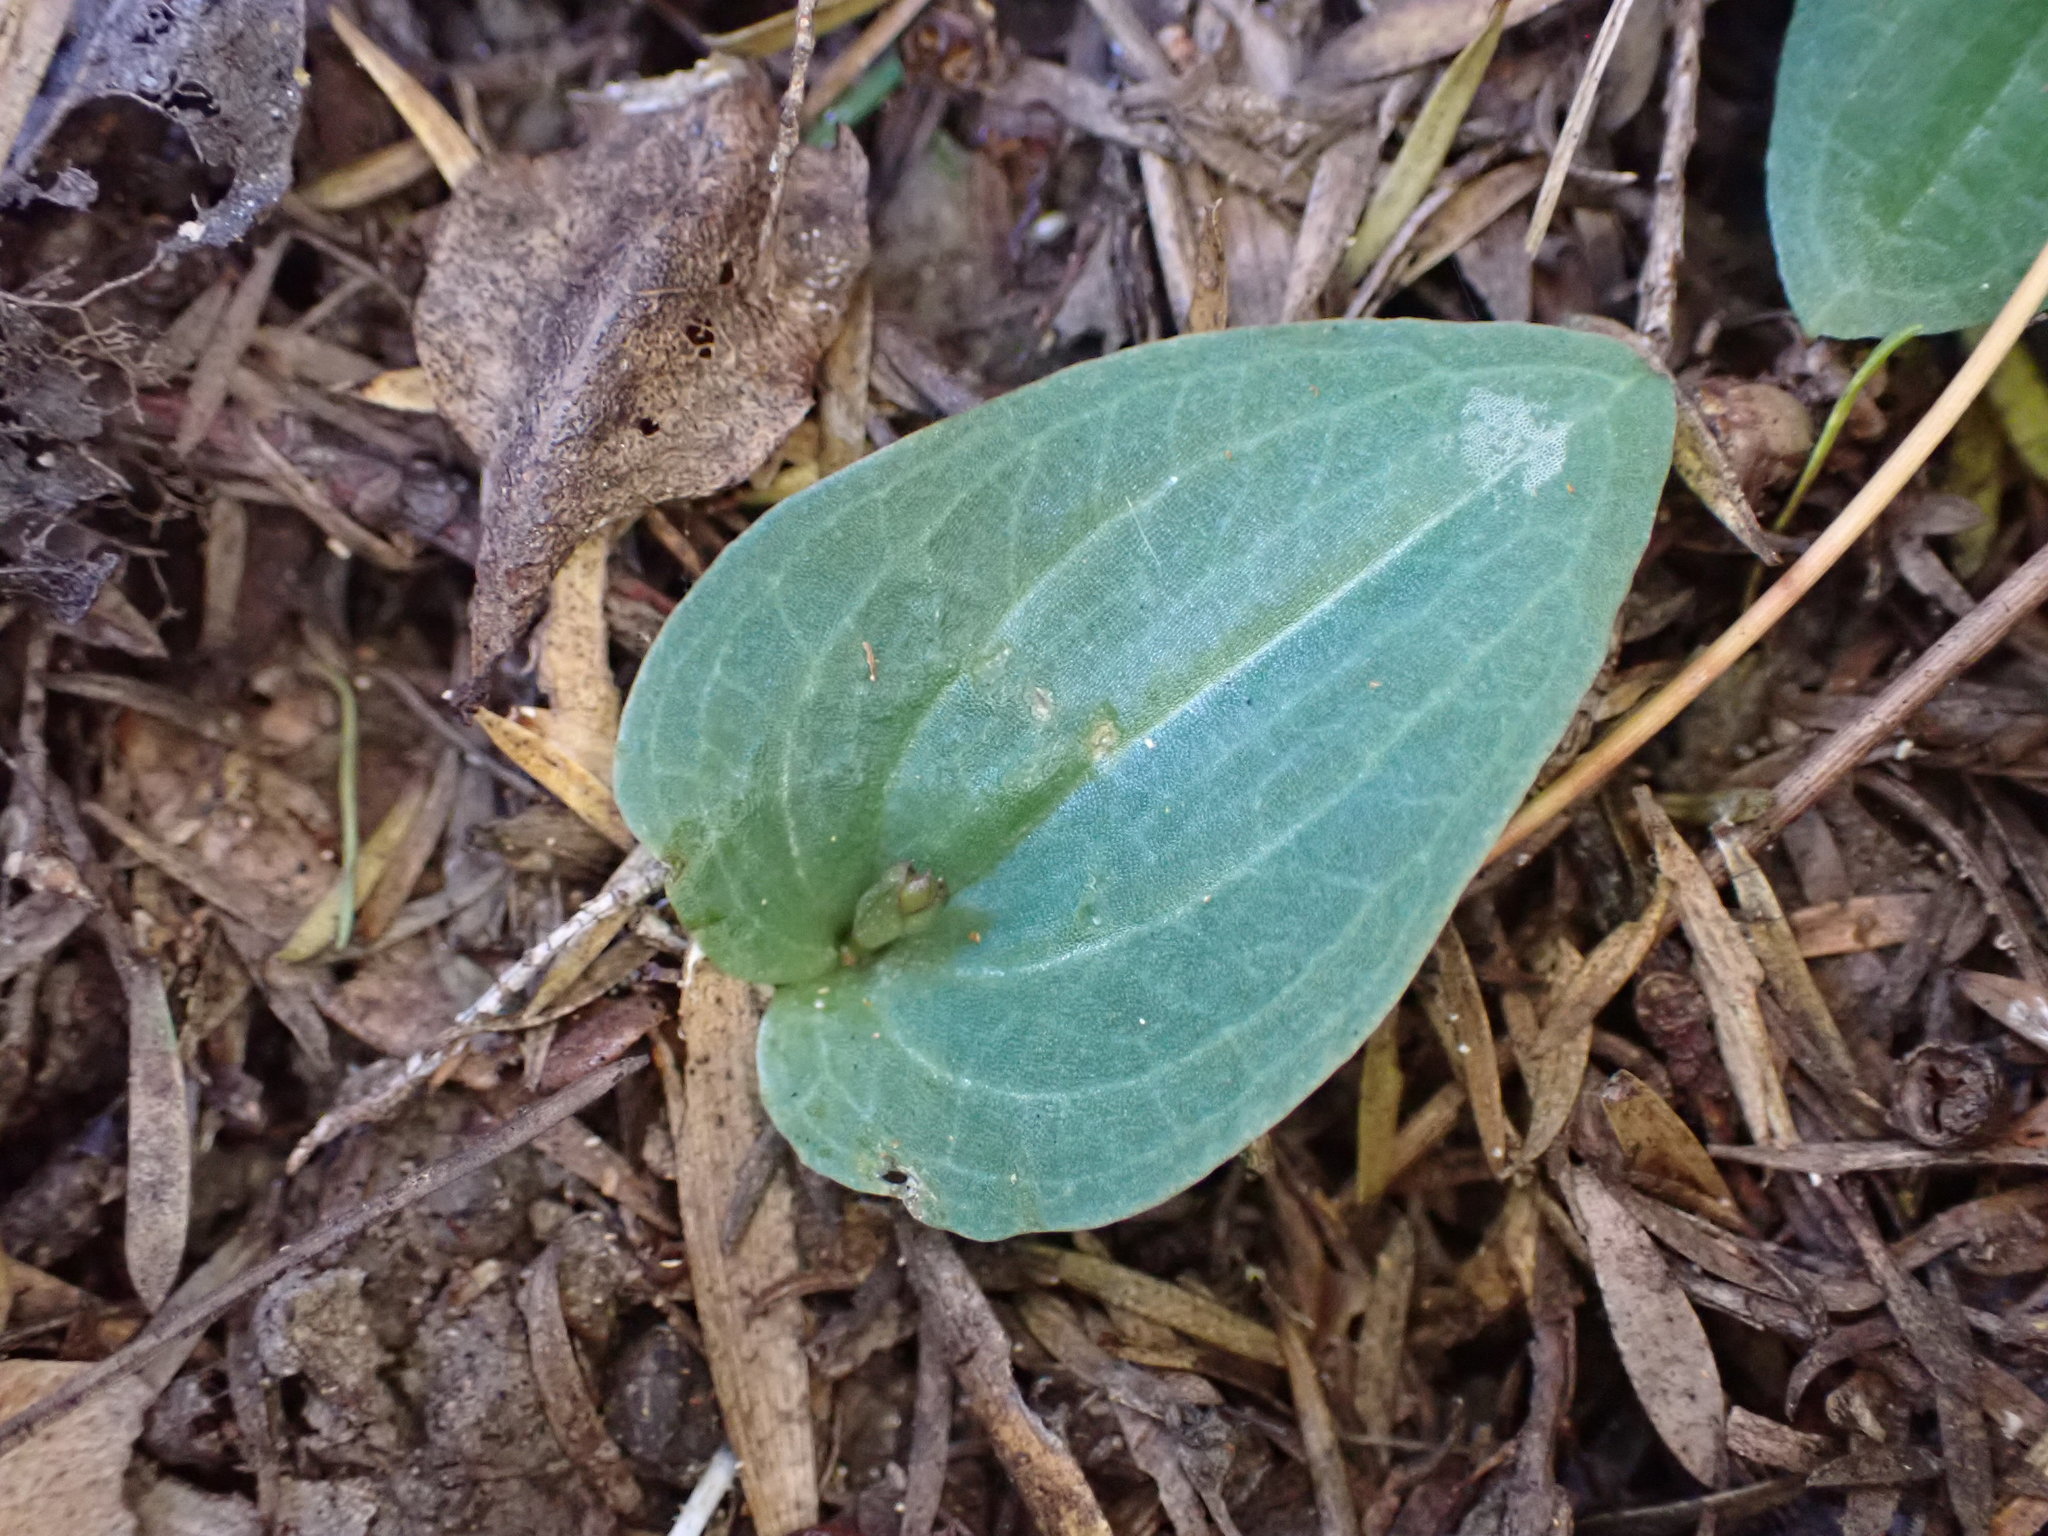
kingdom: Plantae
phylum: Tracheophyta
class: Liliopsida
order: Asparagales
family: Orchidaceae
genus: Cyrtostylis
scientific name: Cyrtostylis rotundifolia
